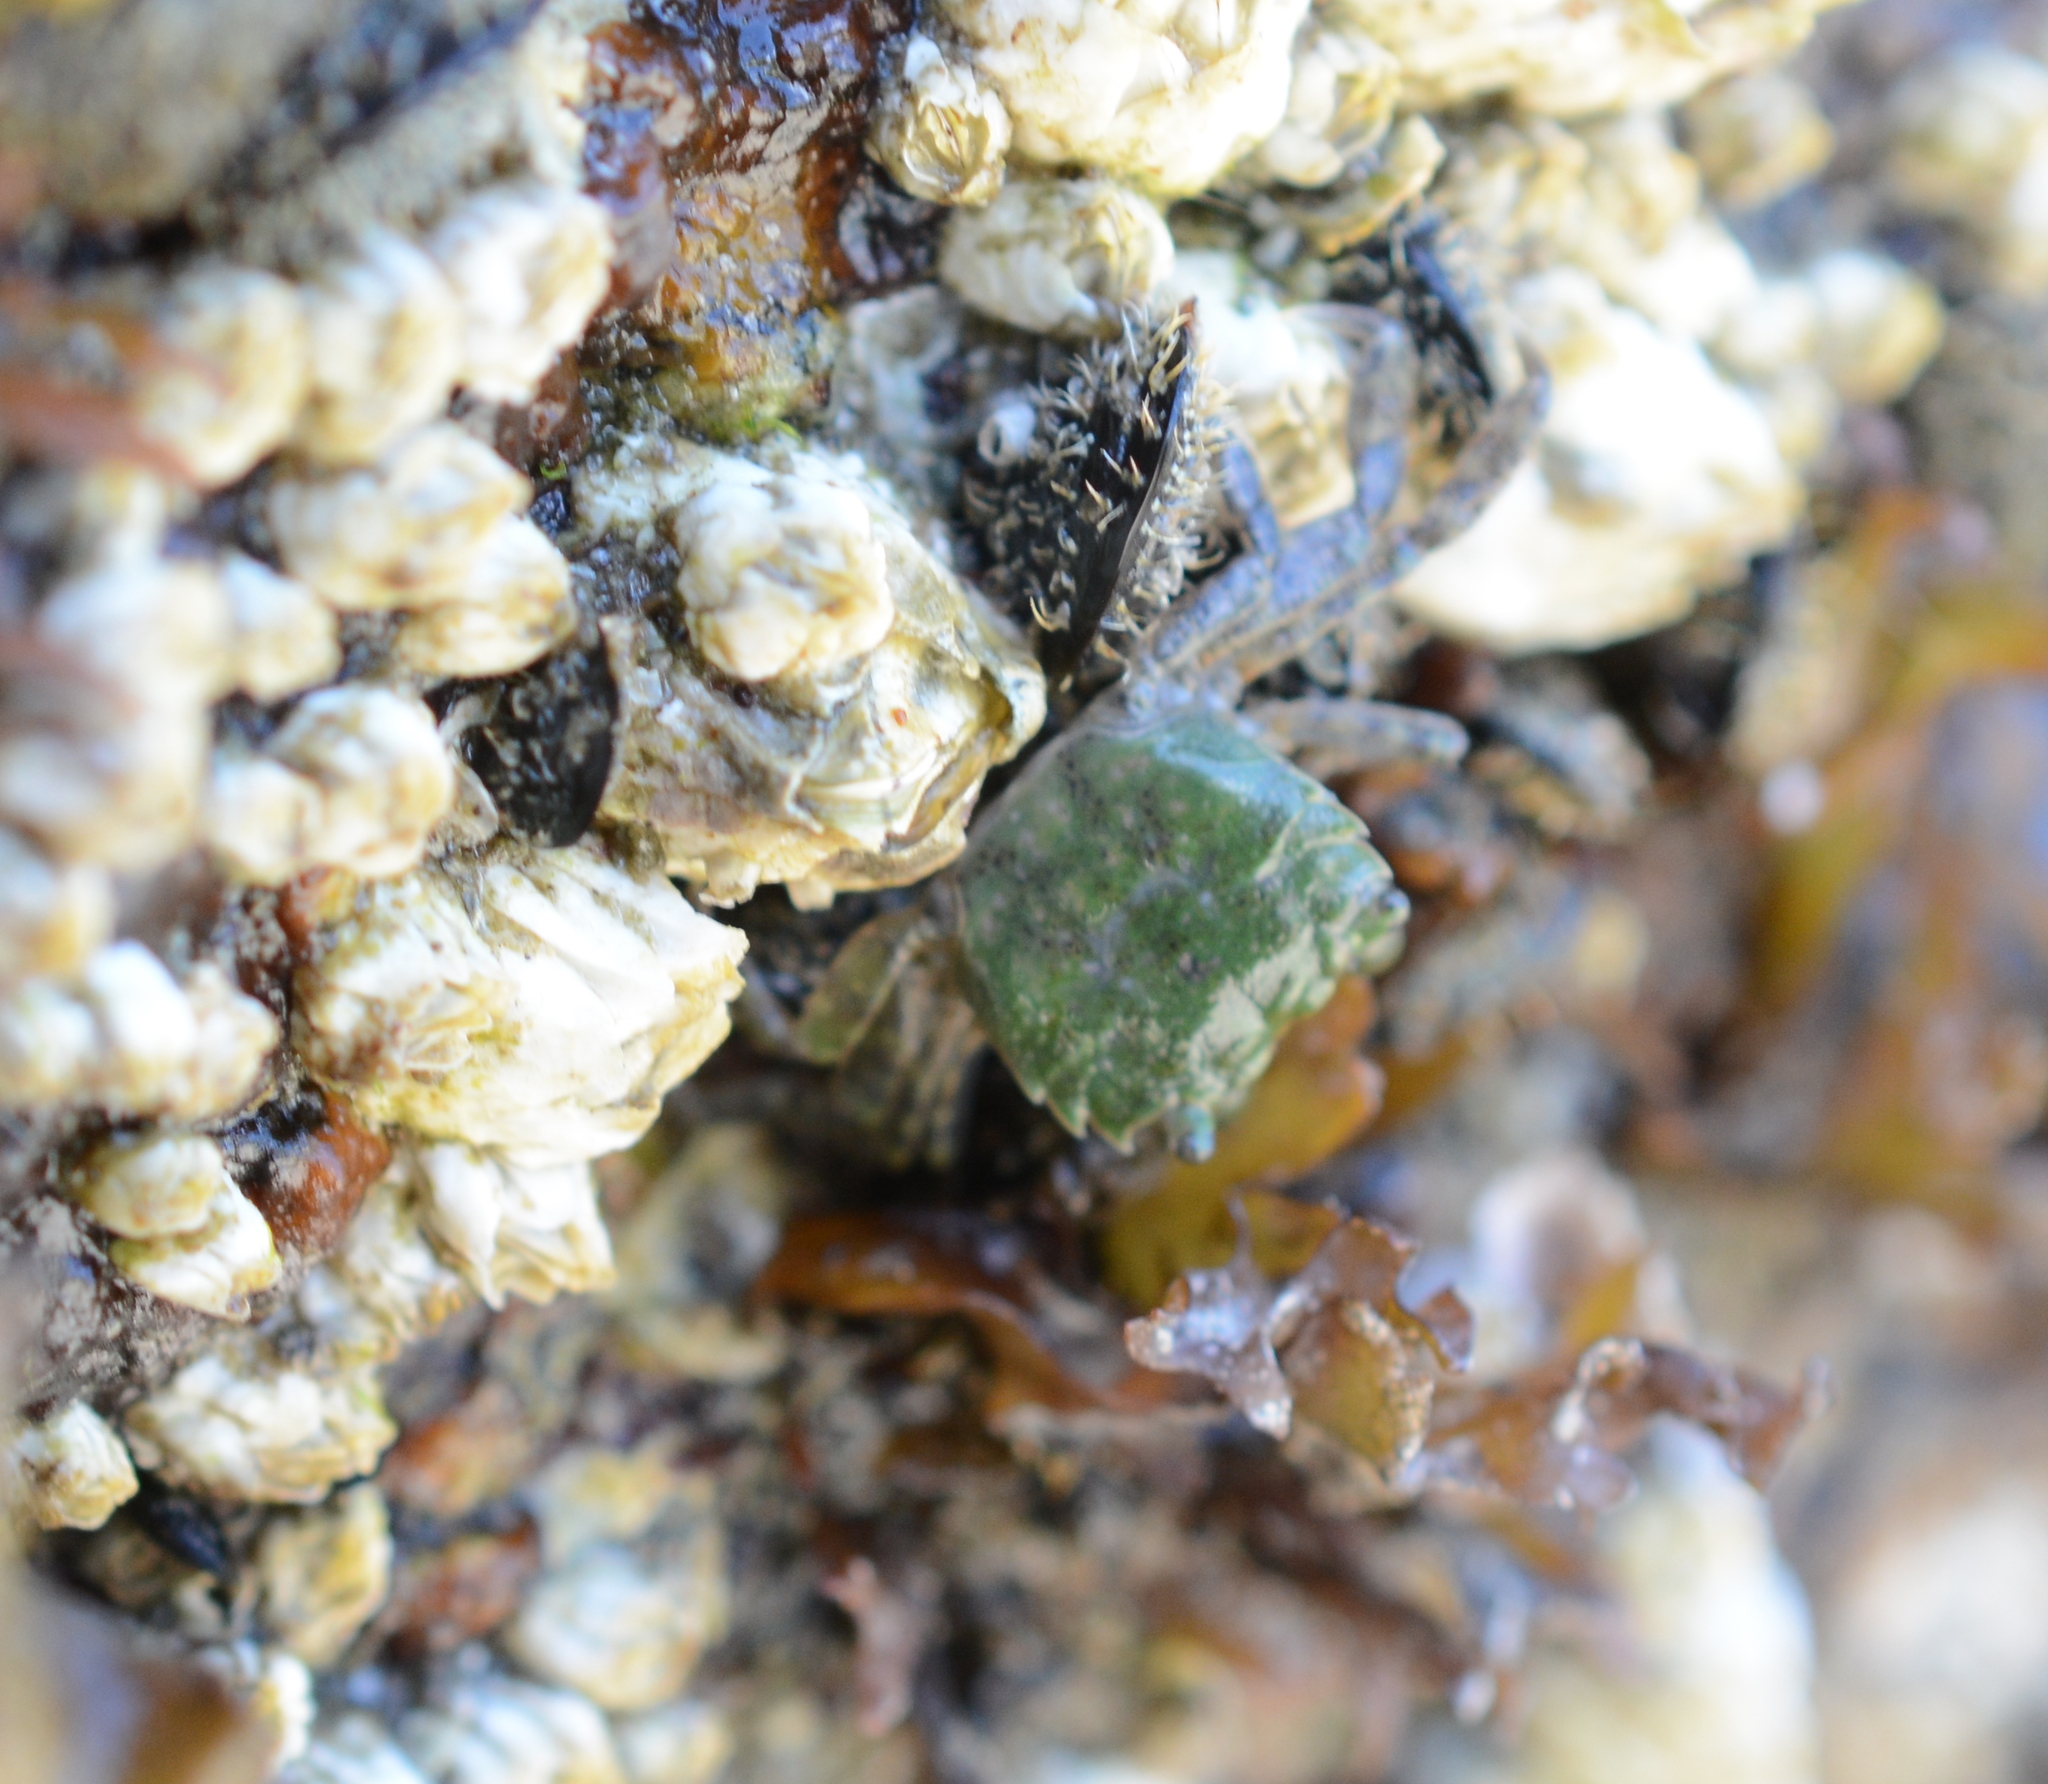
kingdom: Animalia
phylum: Arthropoda
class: Malacostraca
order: Decapoda
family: Varunidae
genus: Hemigrapsus
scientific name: Hemigrapsus oregonensis
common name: Yellow shore crab
